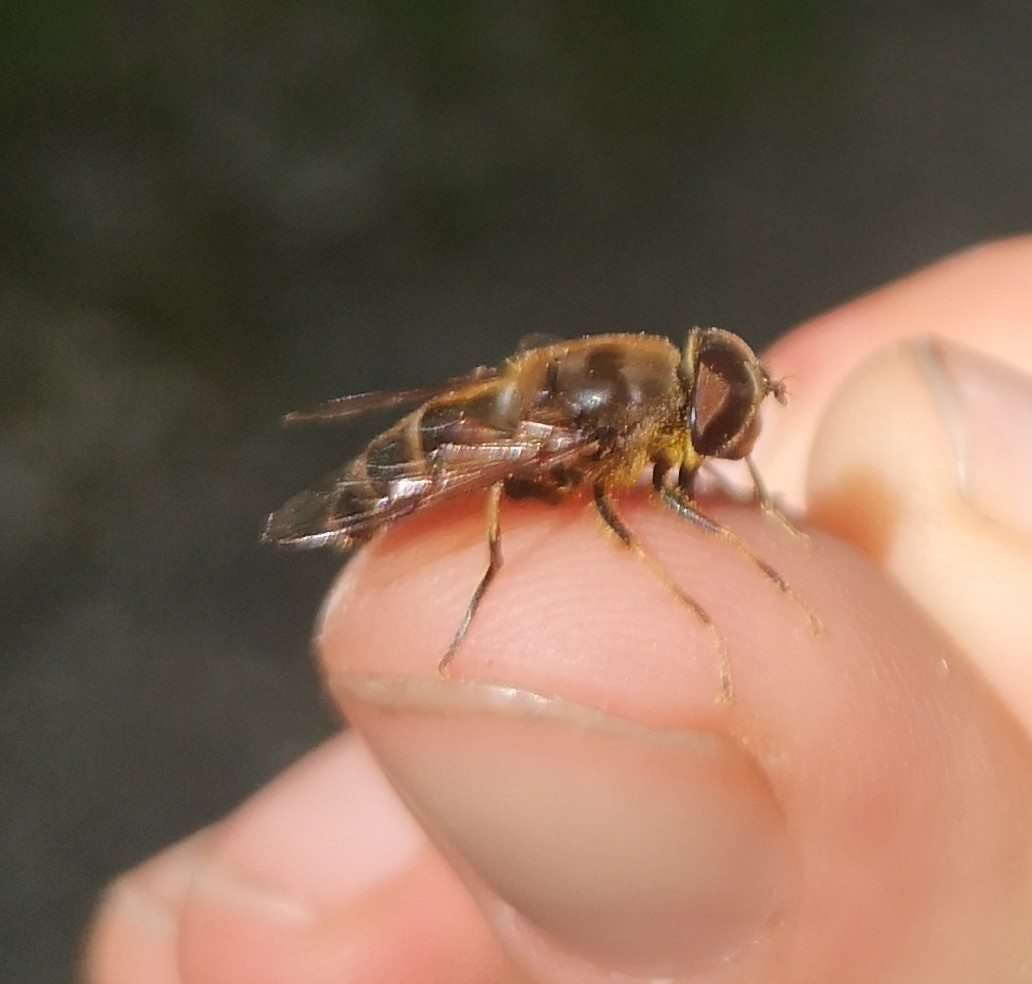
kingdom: Animalia
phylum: Arthropoda
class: Insecta
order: Diptera
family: Syrphidae
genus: Eristalis
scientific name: Eristalis pertinax
